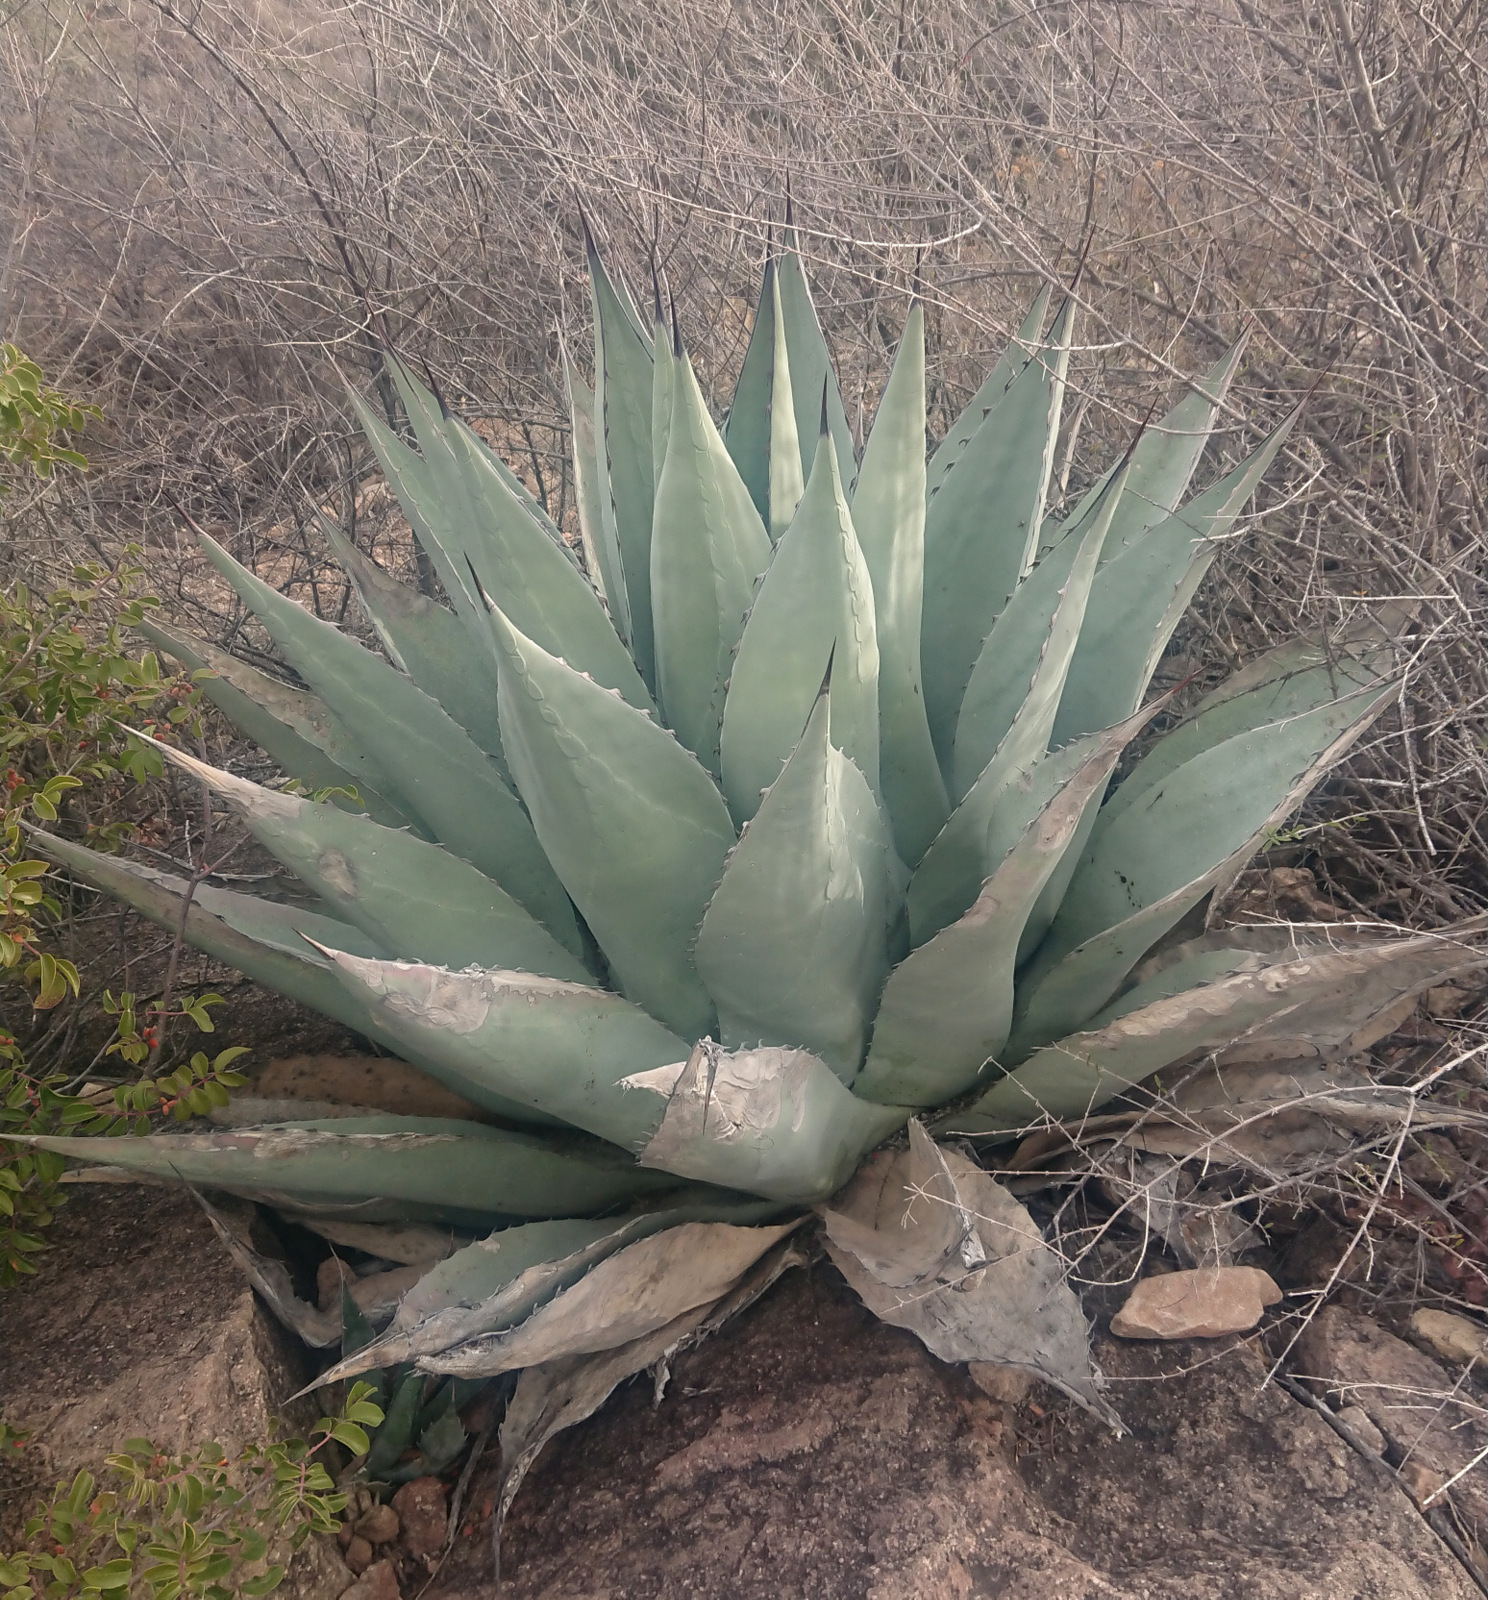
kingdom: Plantae
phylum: Tracheophyta
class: Liliopsida
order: Asparagales
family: Asparagaceae
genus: Agave
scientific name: Agave havardiana
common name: Havard agave
